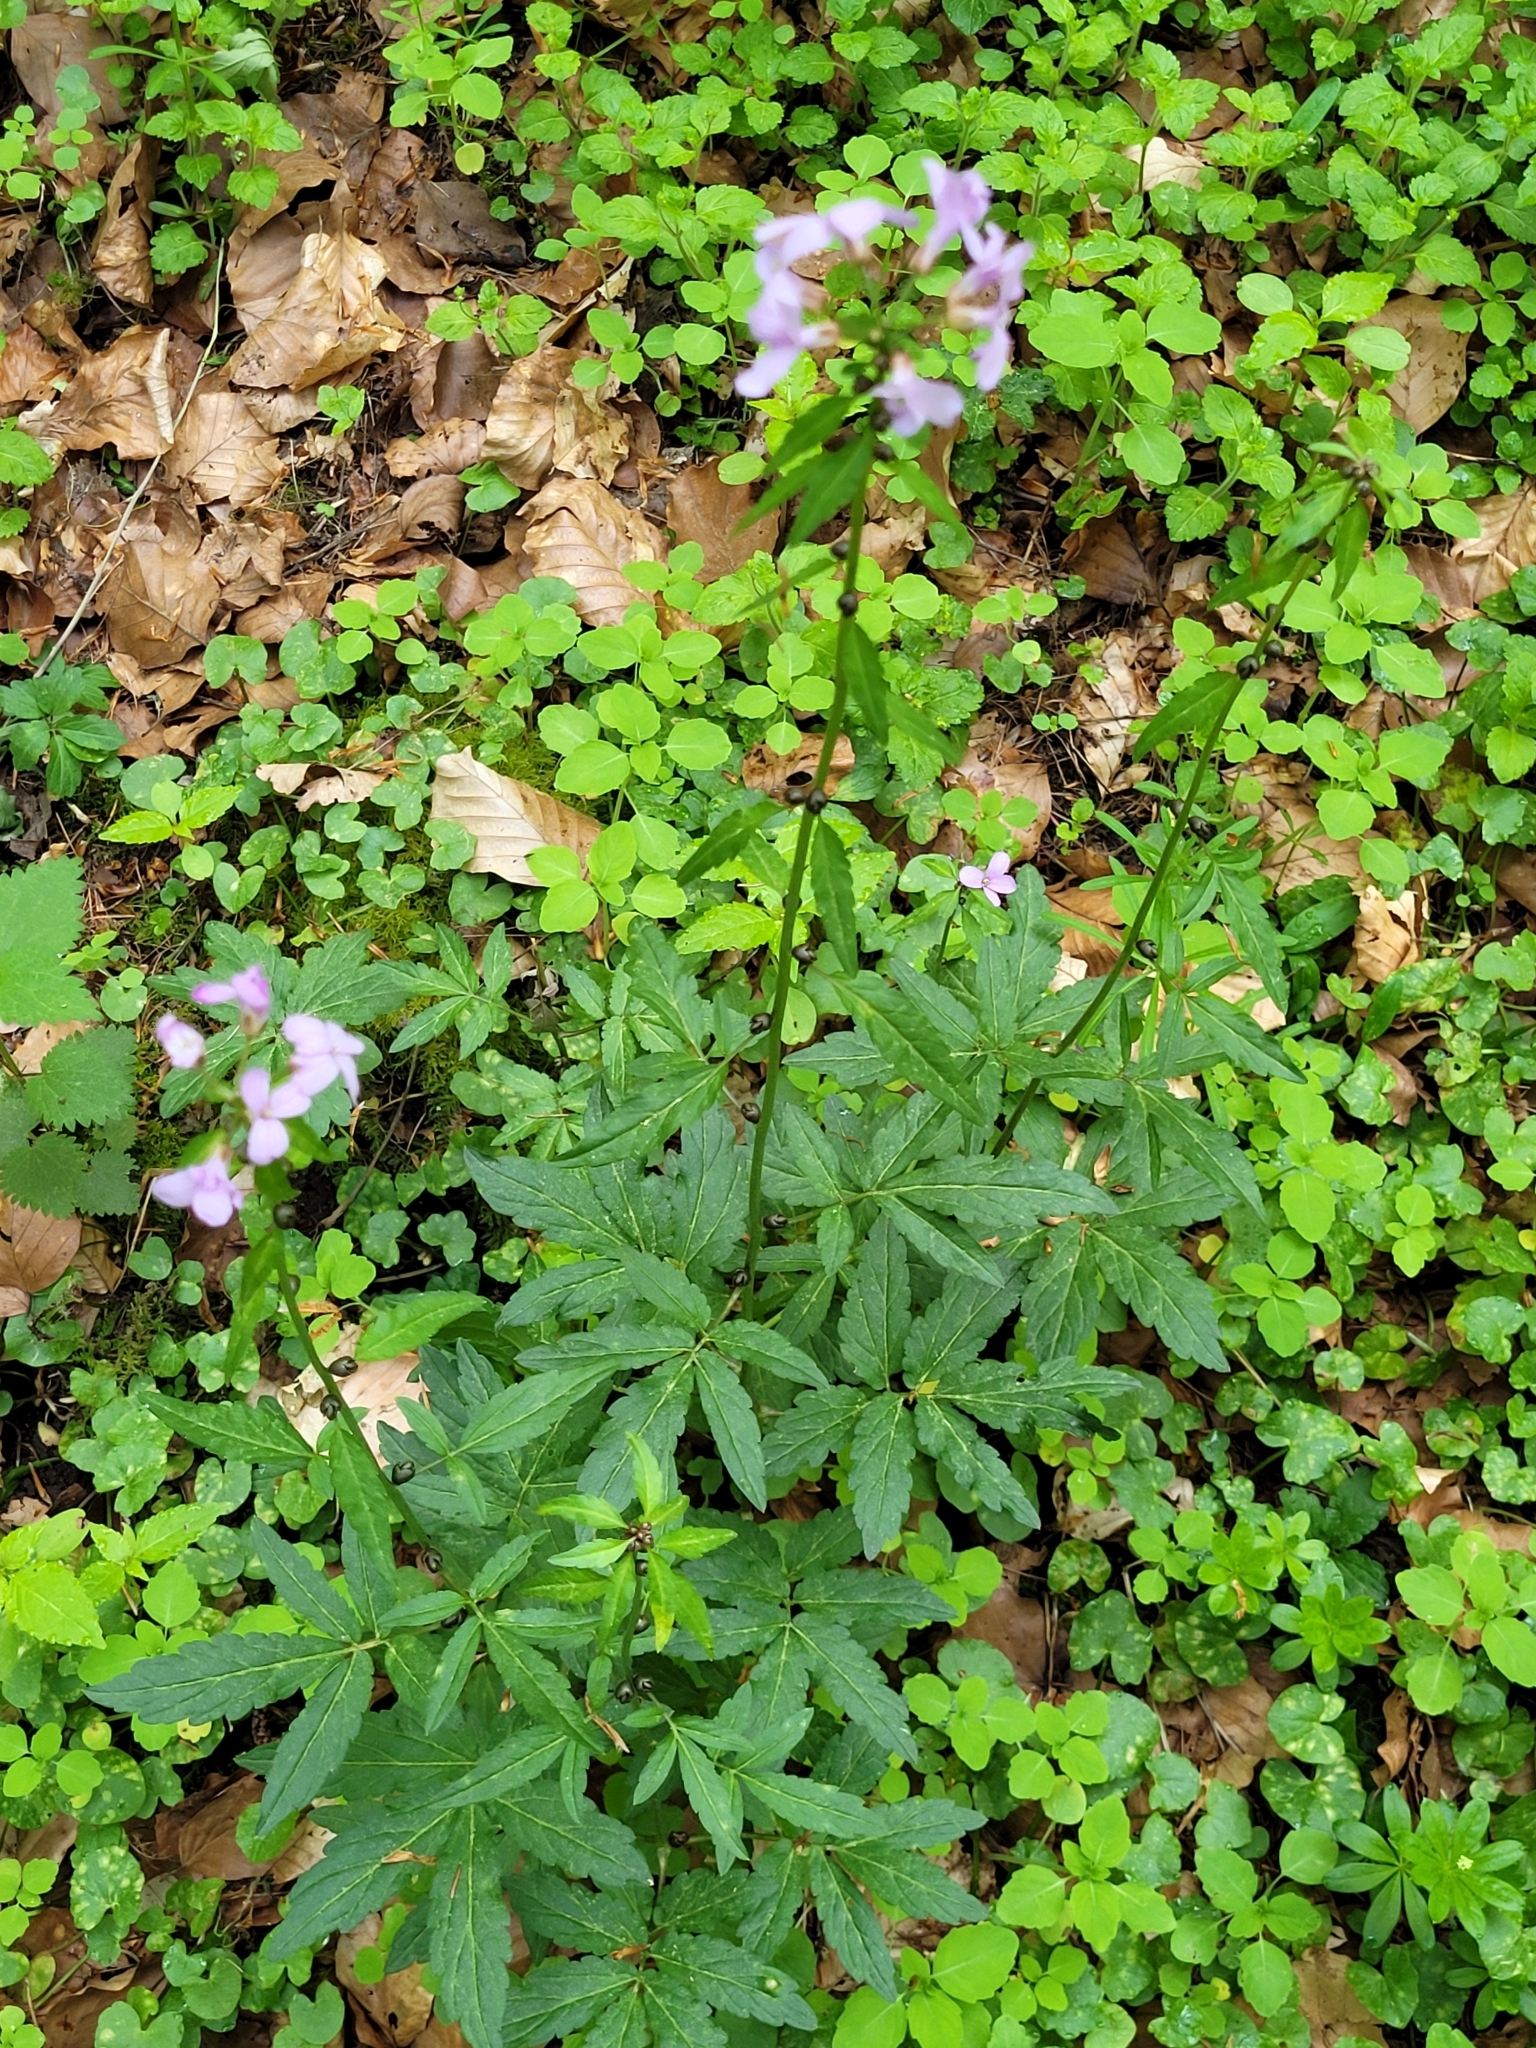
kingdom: Plantae
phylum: Tracheophyta
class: Magnoliopsida
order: Brassicales
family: Brassicaceae
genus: Cardamine
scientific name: Cardamine bulbifera
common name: Coralroot bittercress
